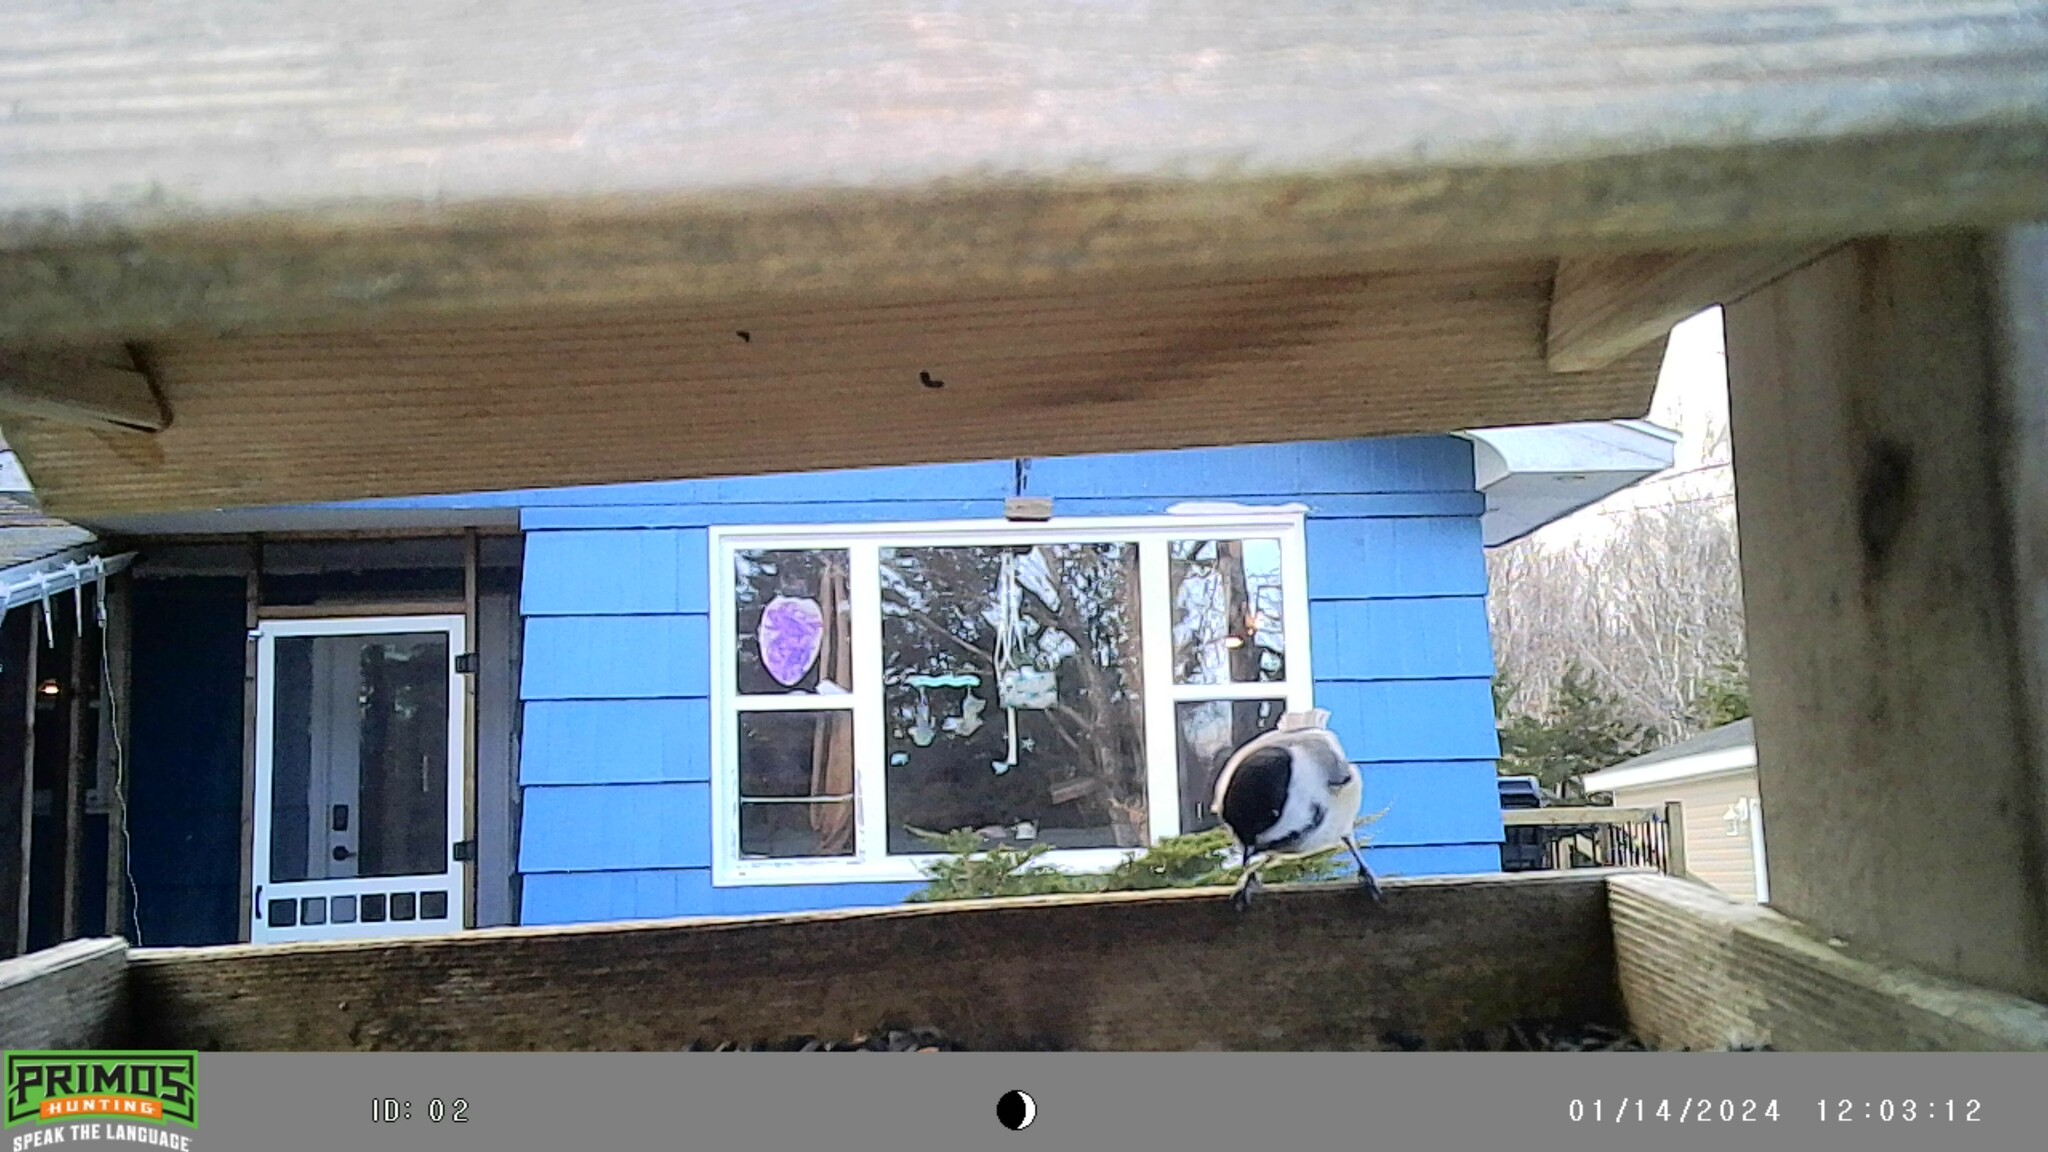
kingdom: Animalia
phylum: Chordata
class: Aves
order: Passeriformes
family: Paridae
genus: Poecile
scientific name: Poecile atricapillus
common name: Black-capped chickadee
